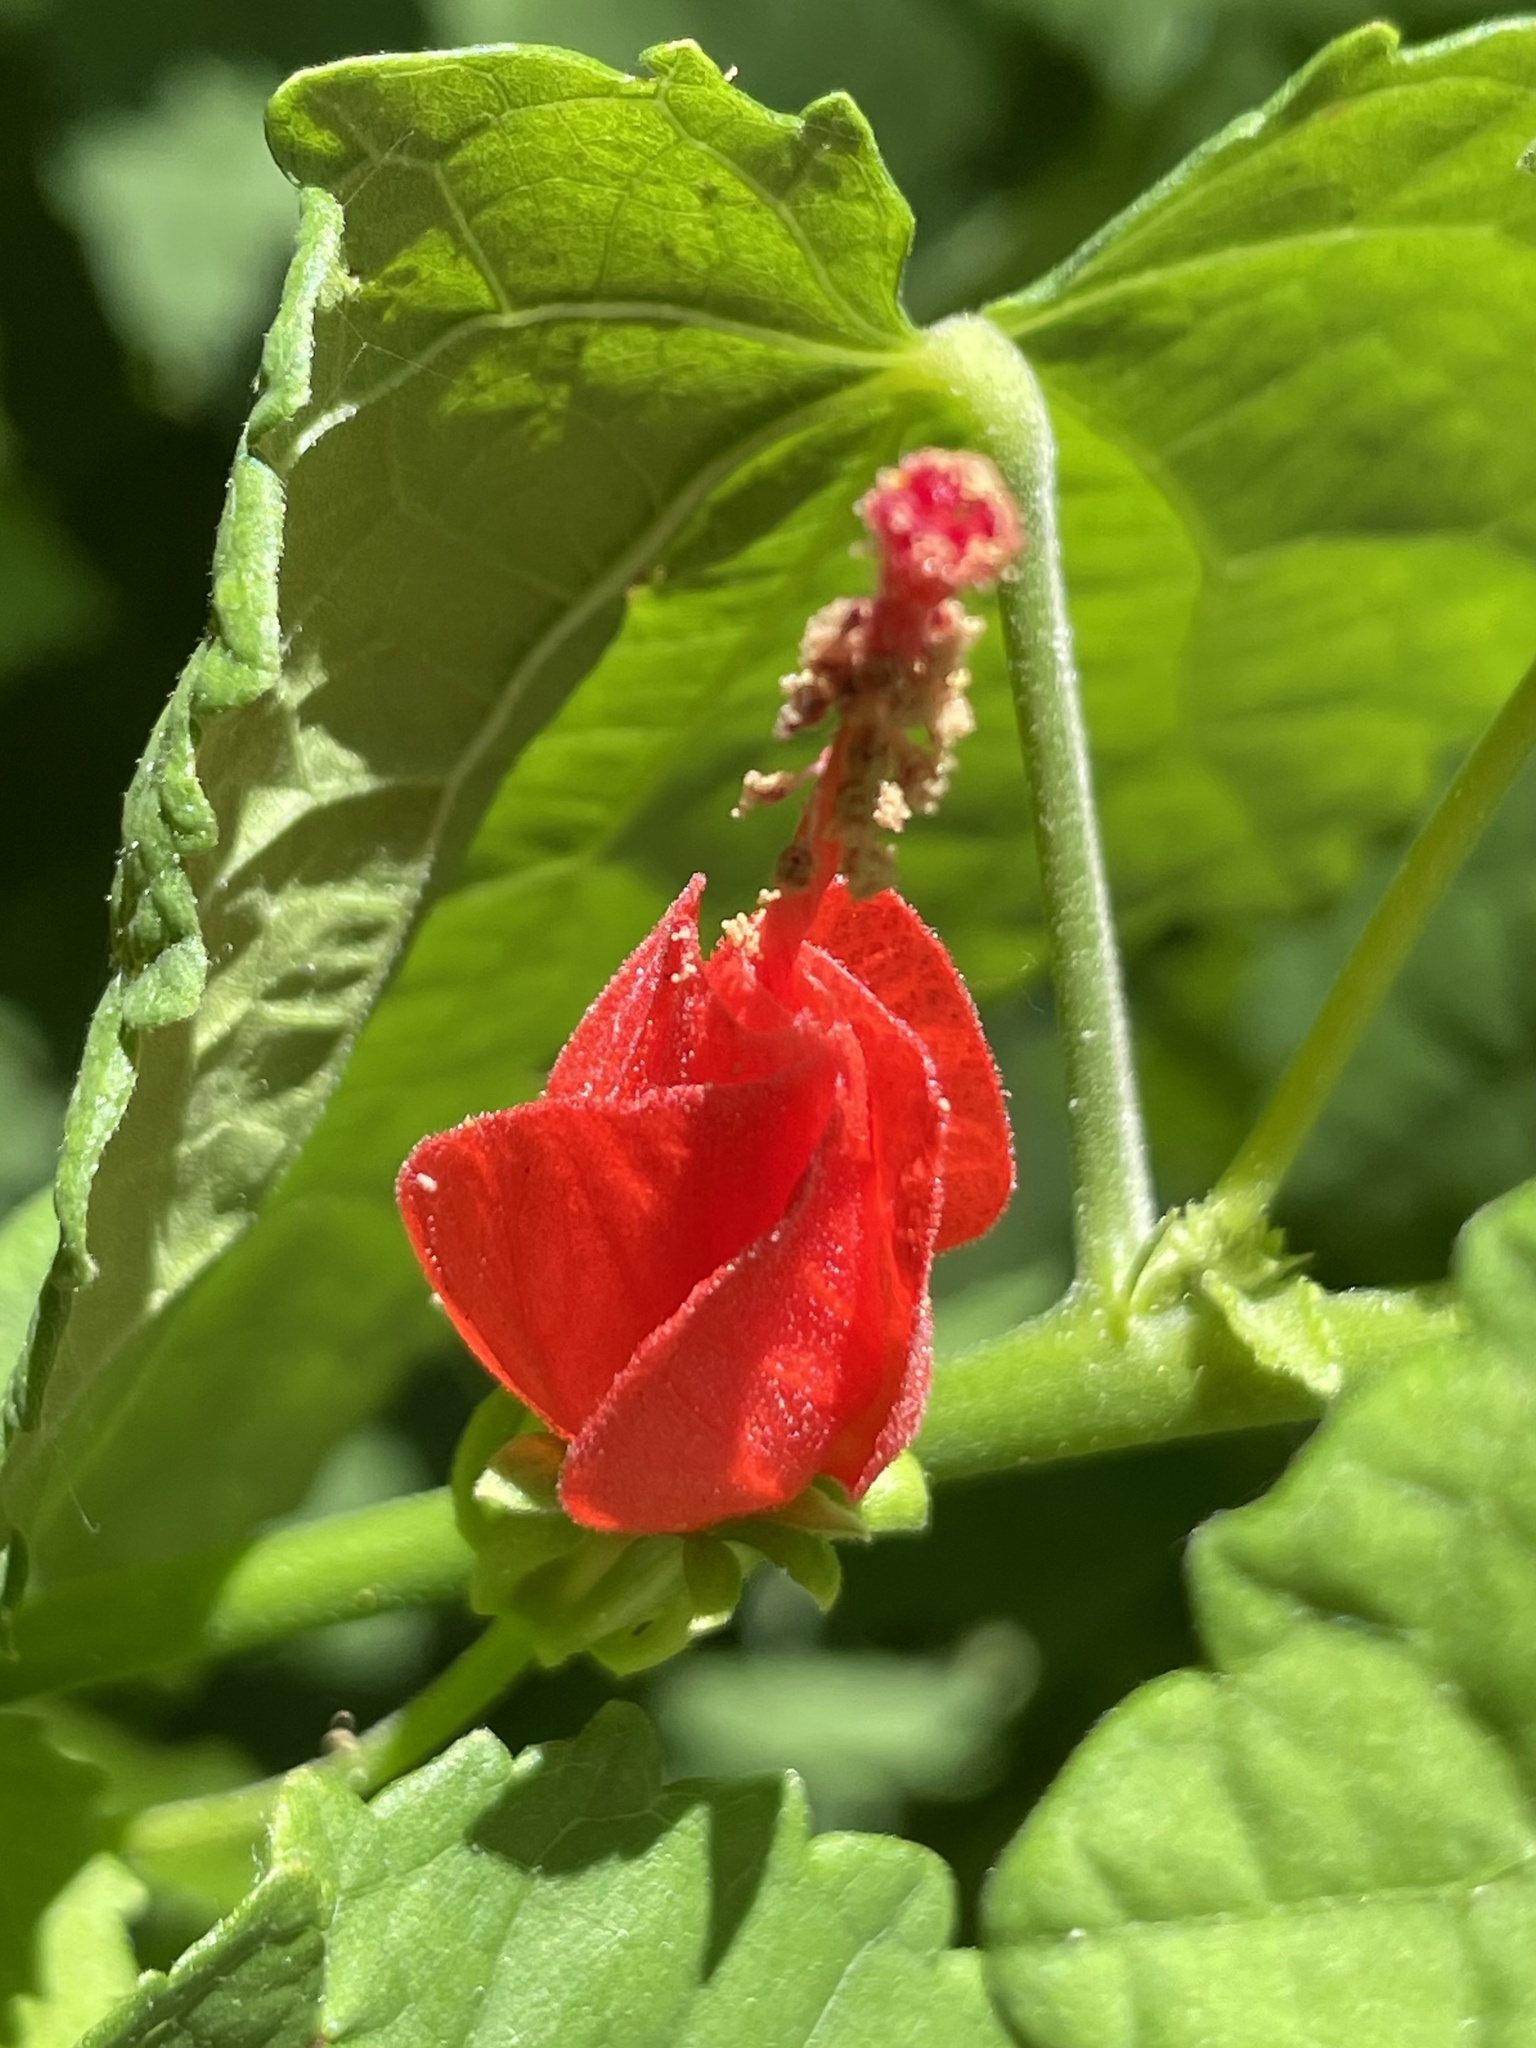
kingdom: Plantae
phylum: Tracheophyta
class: Magnoliopsida
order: Malvales
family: Malvaceae
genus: Malvaviscus
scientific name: Malvaviscus arboreus
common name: Wax mallow
